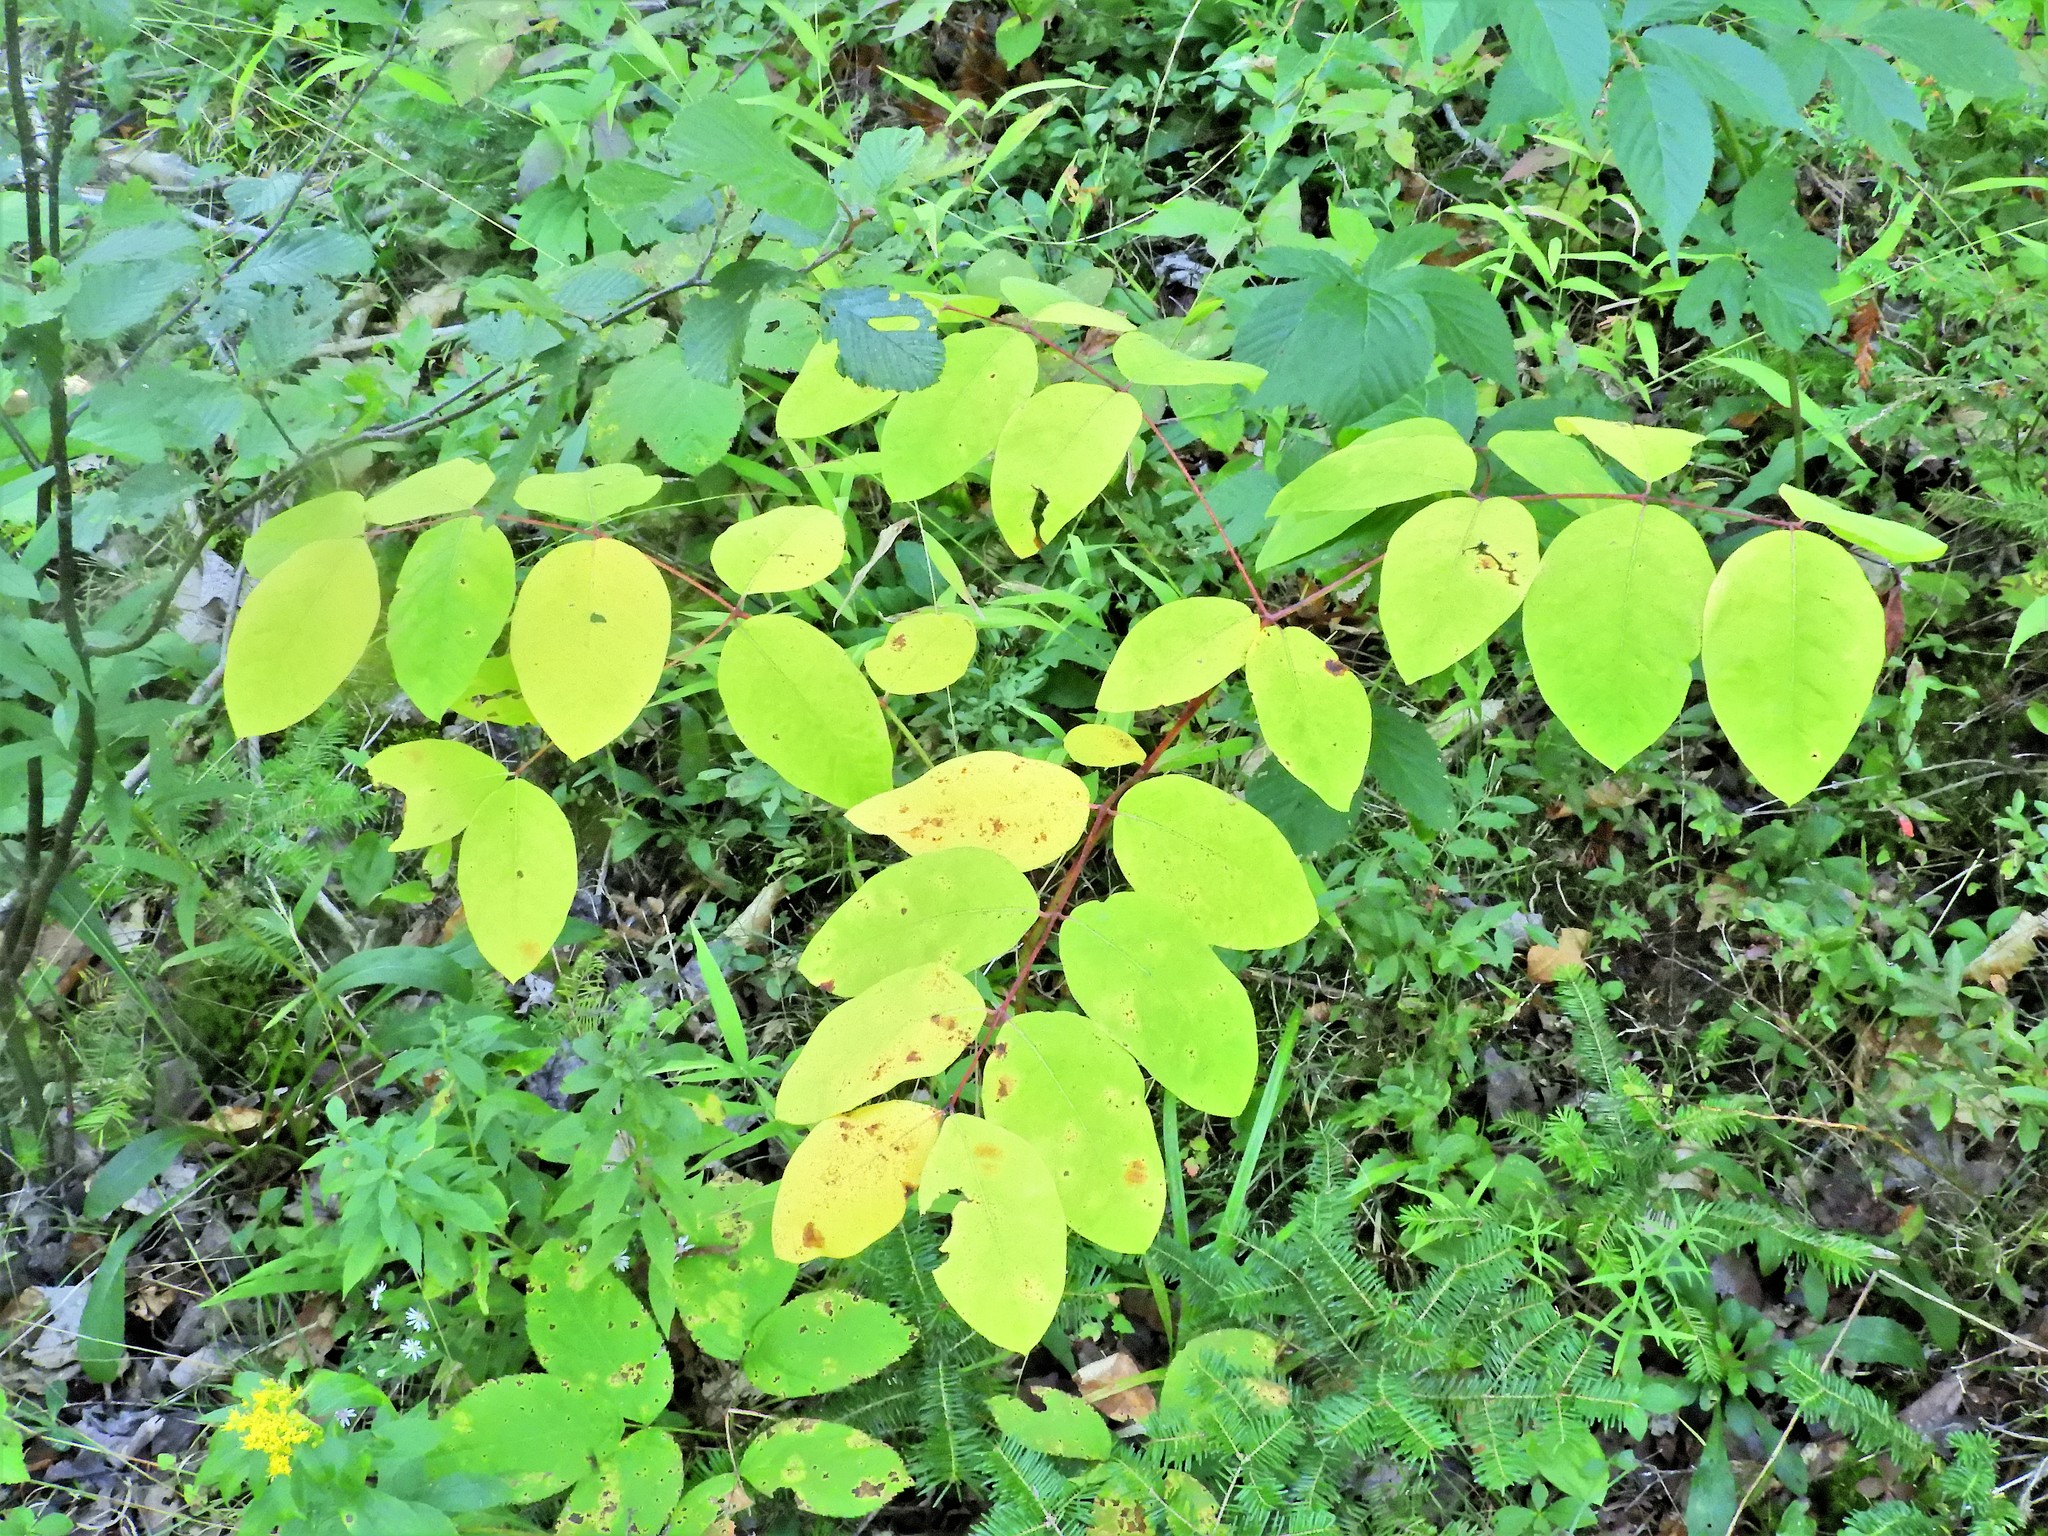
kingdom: Plantae
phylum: Tracheophyta
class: Magnoliopsida
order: Gentianales
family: Apocynaceae
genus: Apocynum
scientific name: Apocynum androsaemifolium
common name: Spreading dogbane
